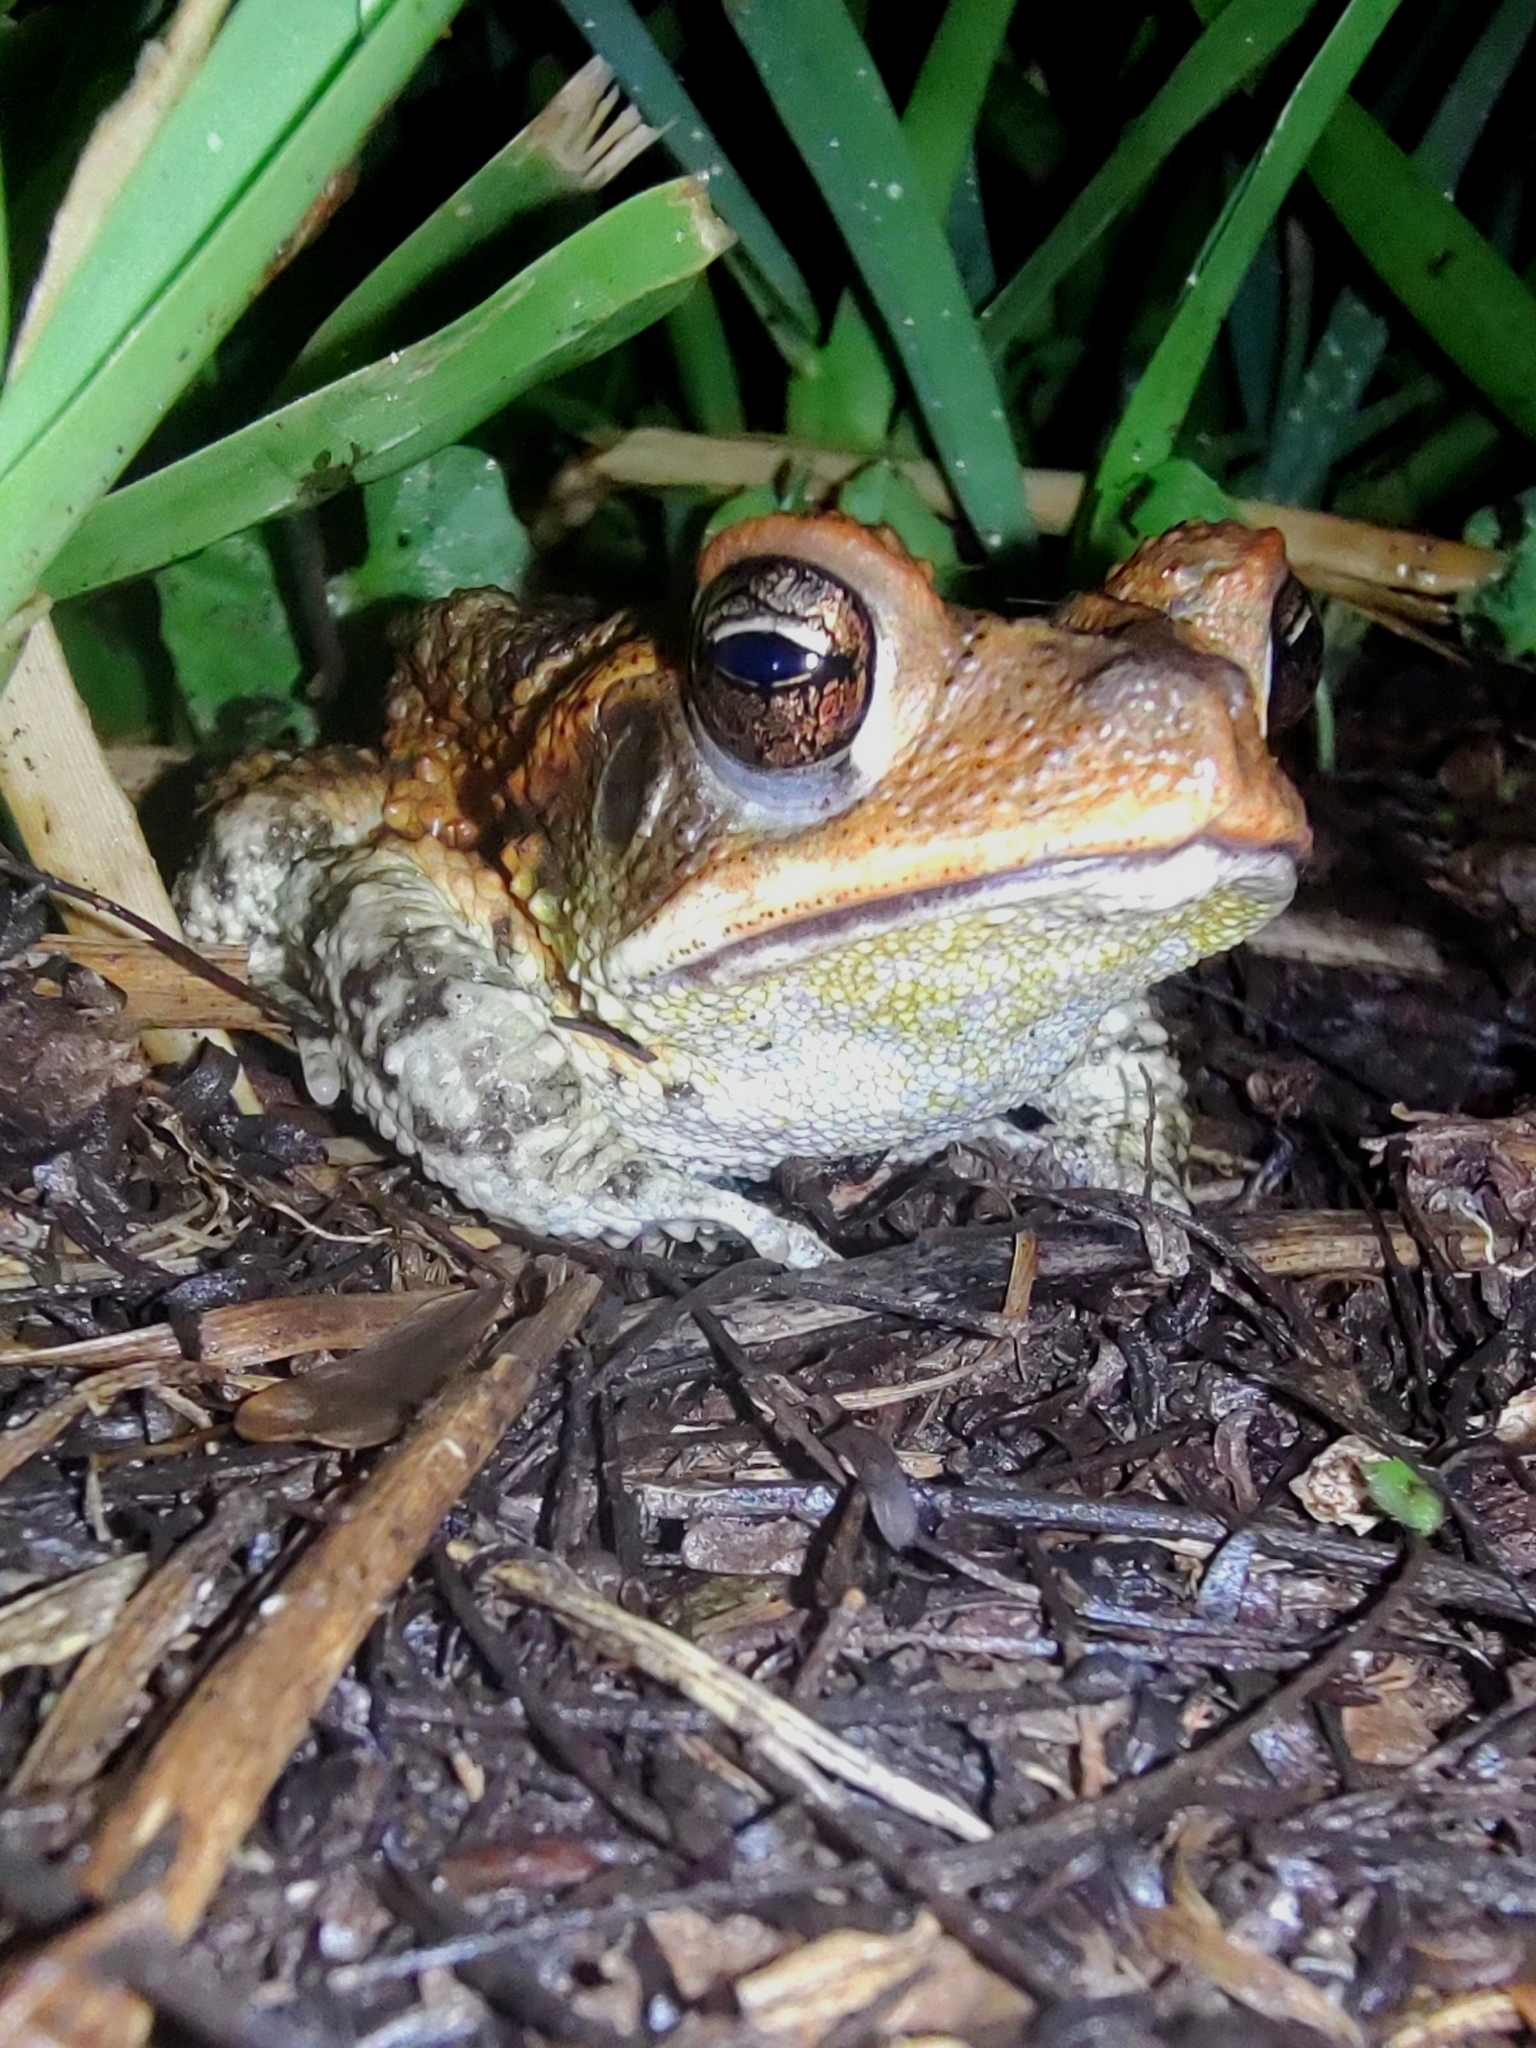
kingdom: Animalia
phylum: Chordata
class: Amphibia
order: Anura
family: Bufonidae
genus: Incilius
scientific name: Incilius valliceps
